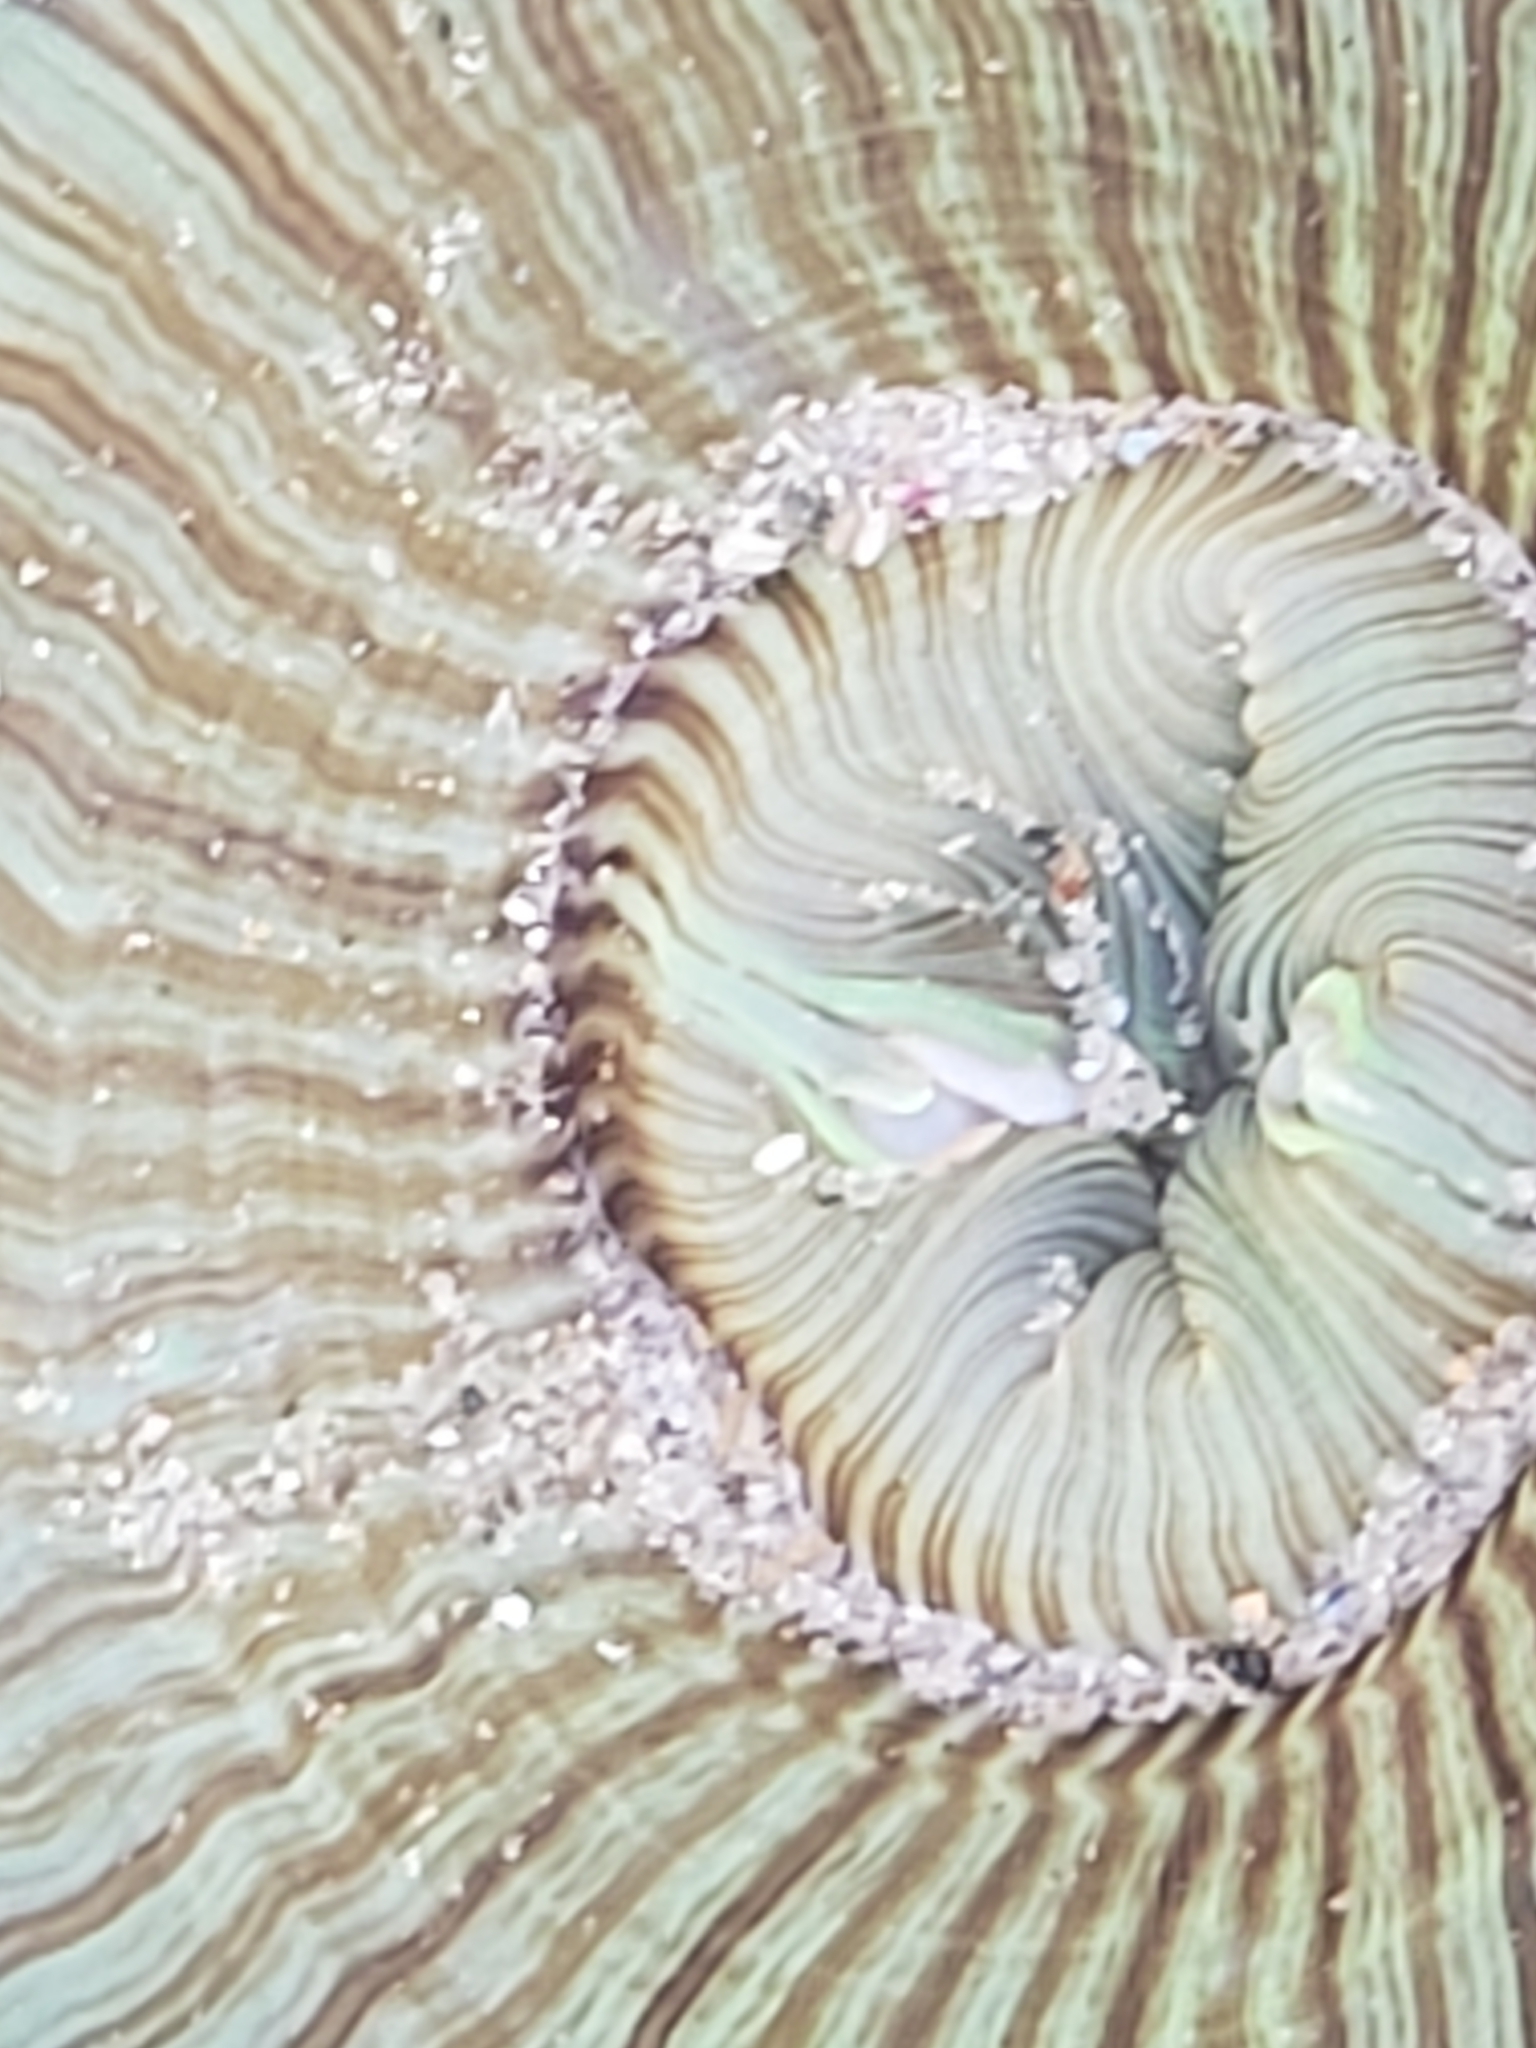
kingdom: Animalia
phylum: Cnidaria
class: Anthozoa
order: Actiniaria
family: Actiniidae
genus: Anthopleura
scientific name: Anthopleura sola
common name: Sun anemone
